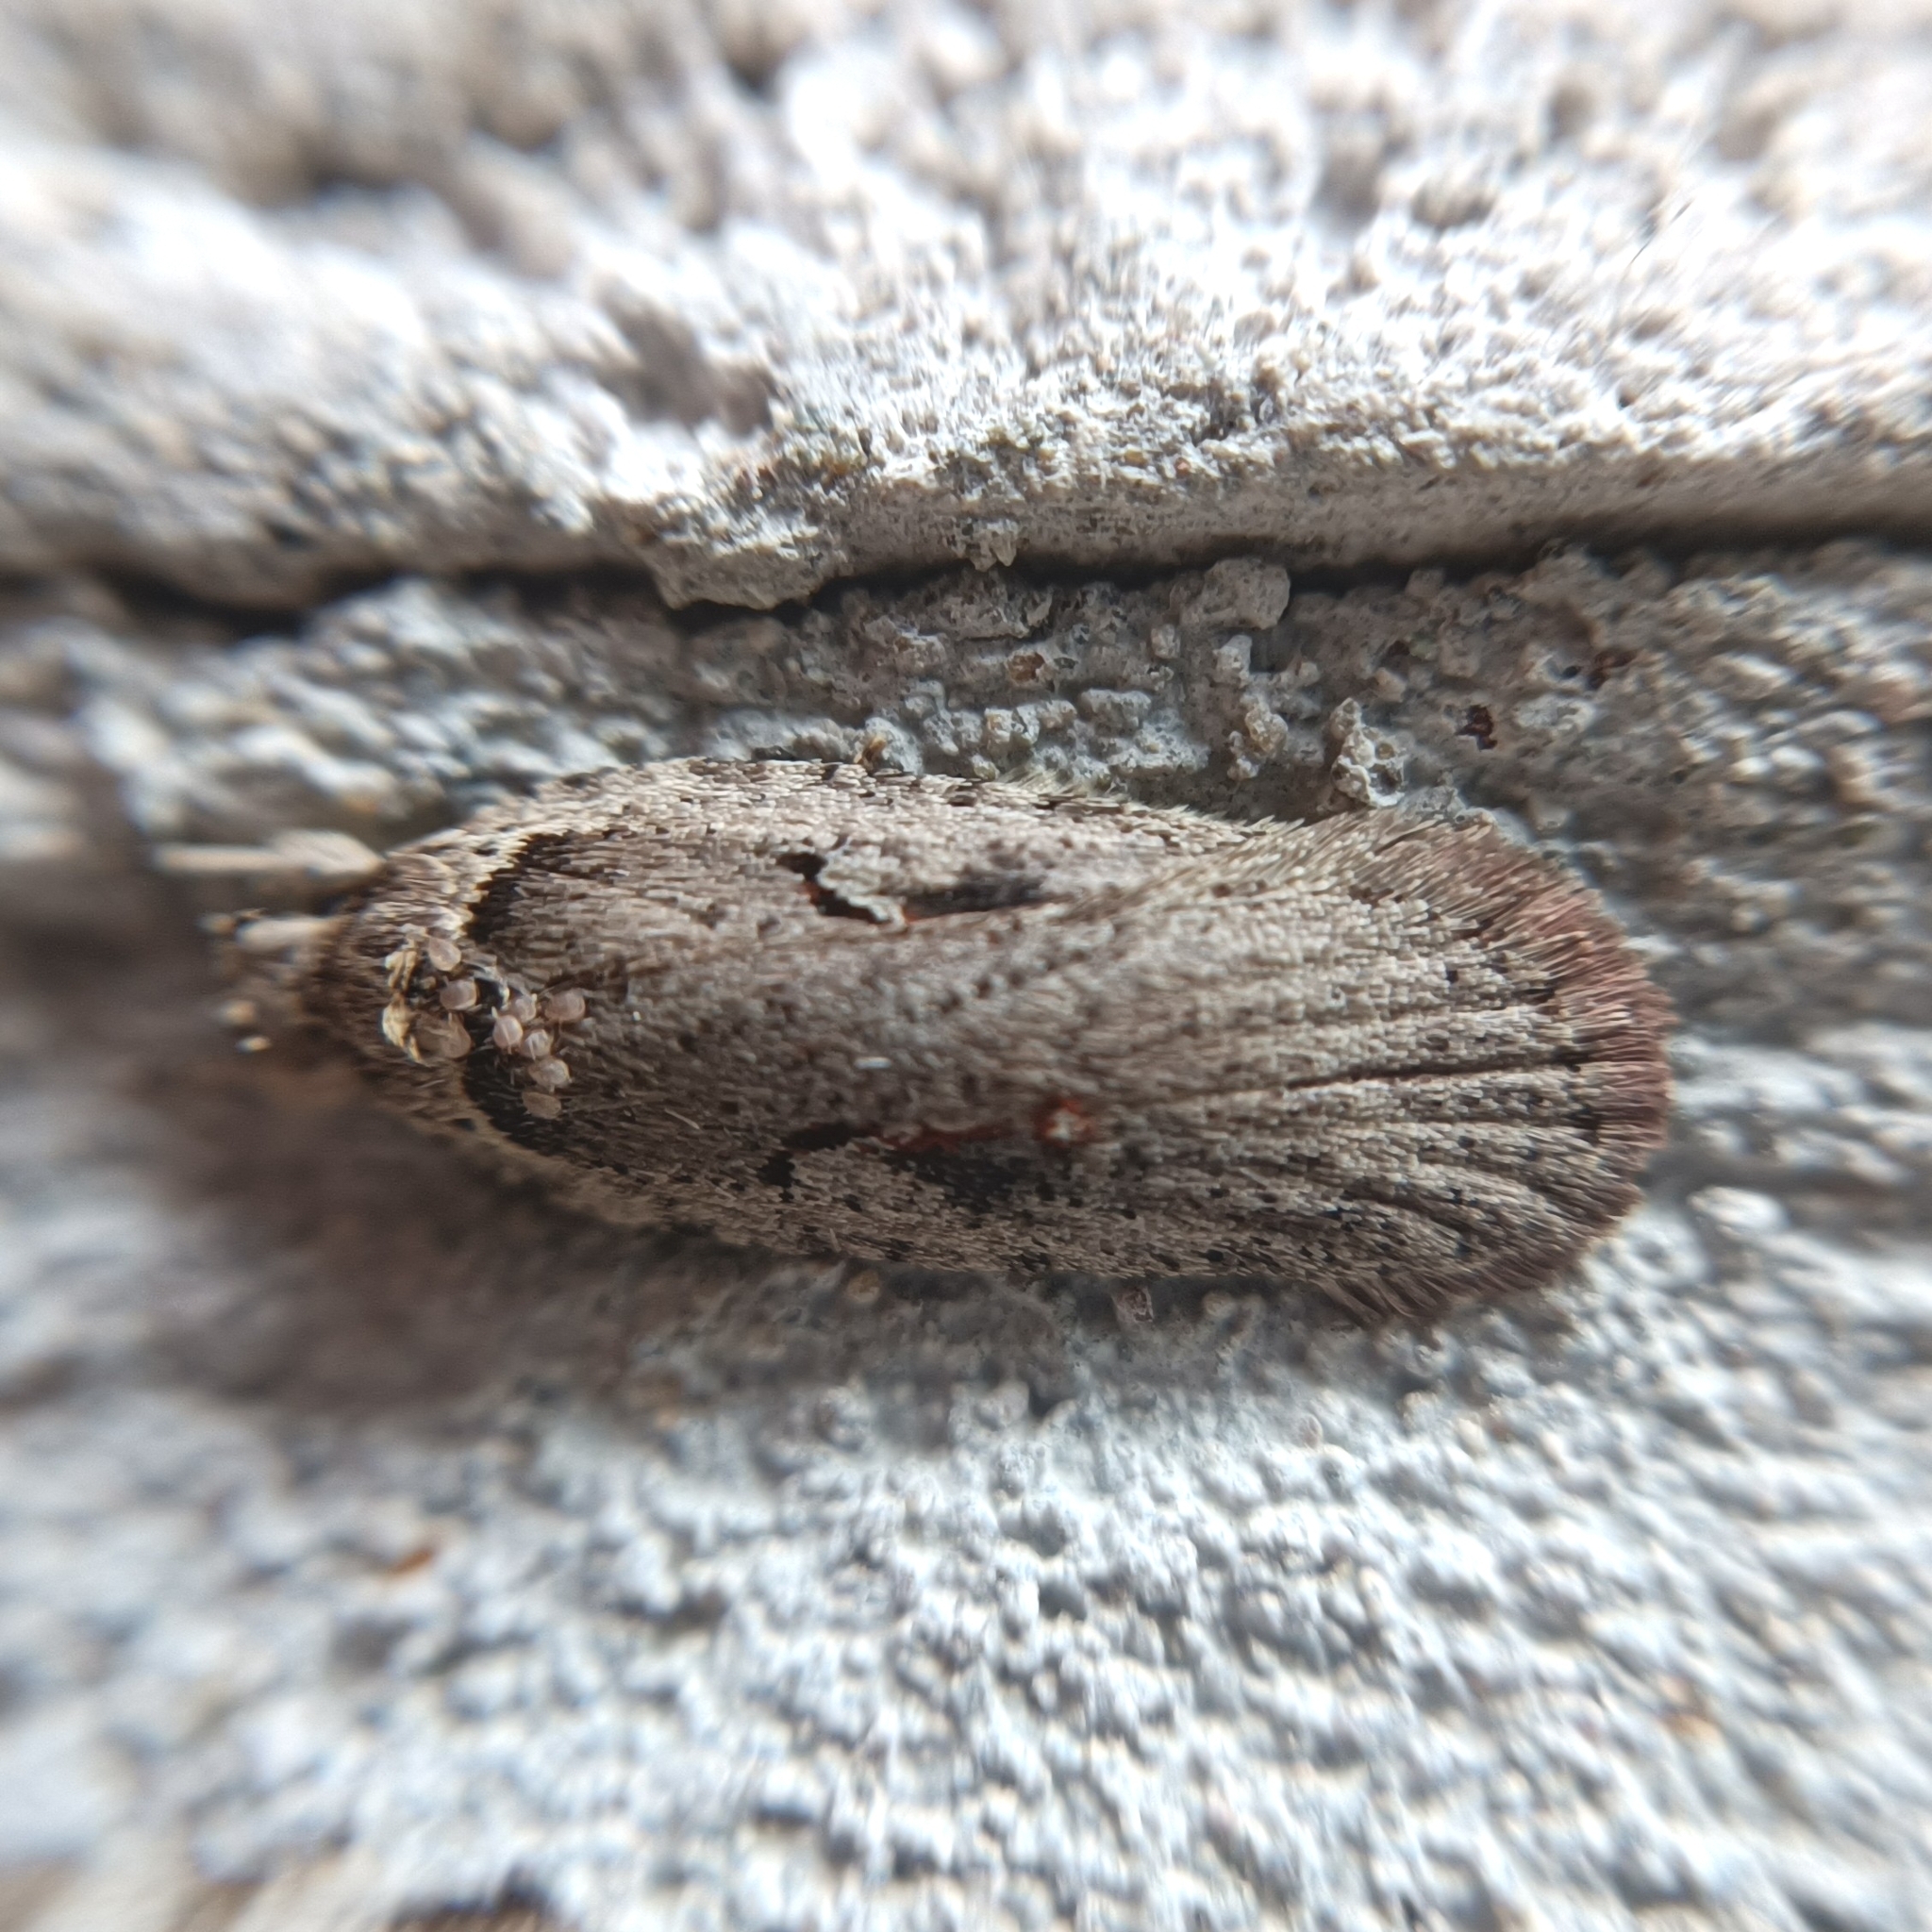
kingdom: Animalia
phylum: Arthropoda
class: Insecta
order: Lepidoptera
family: Depressariidae
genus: Agonopterix
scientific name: Agonopterix ocellana
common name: Red-letter flat-body
